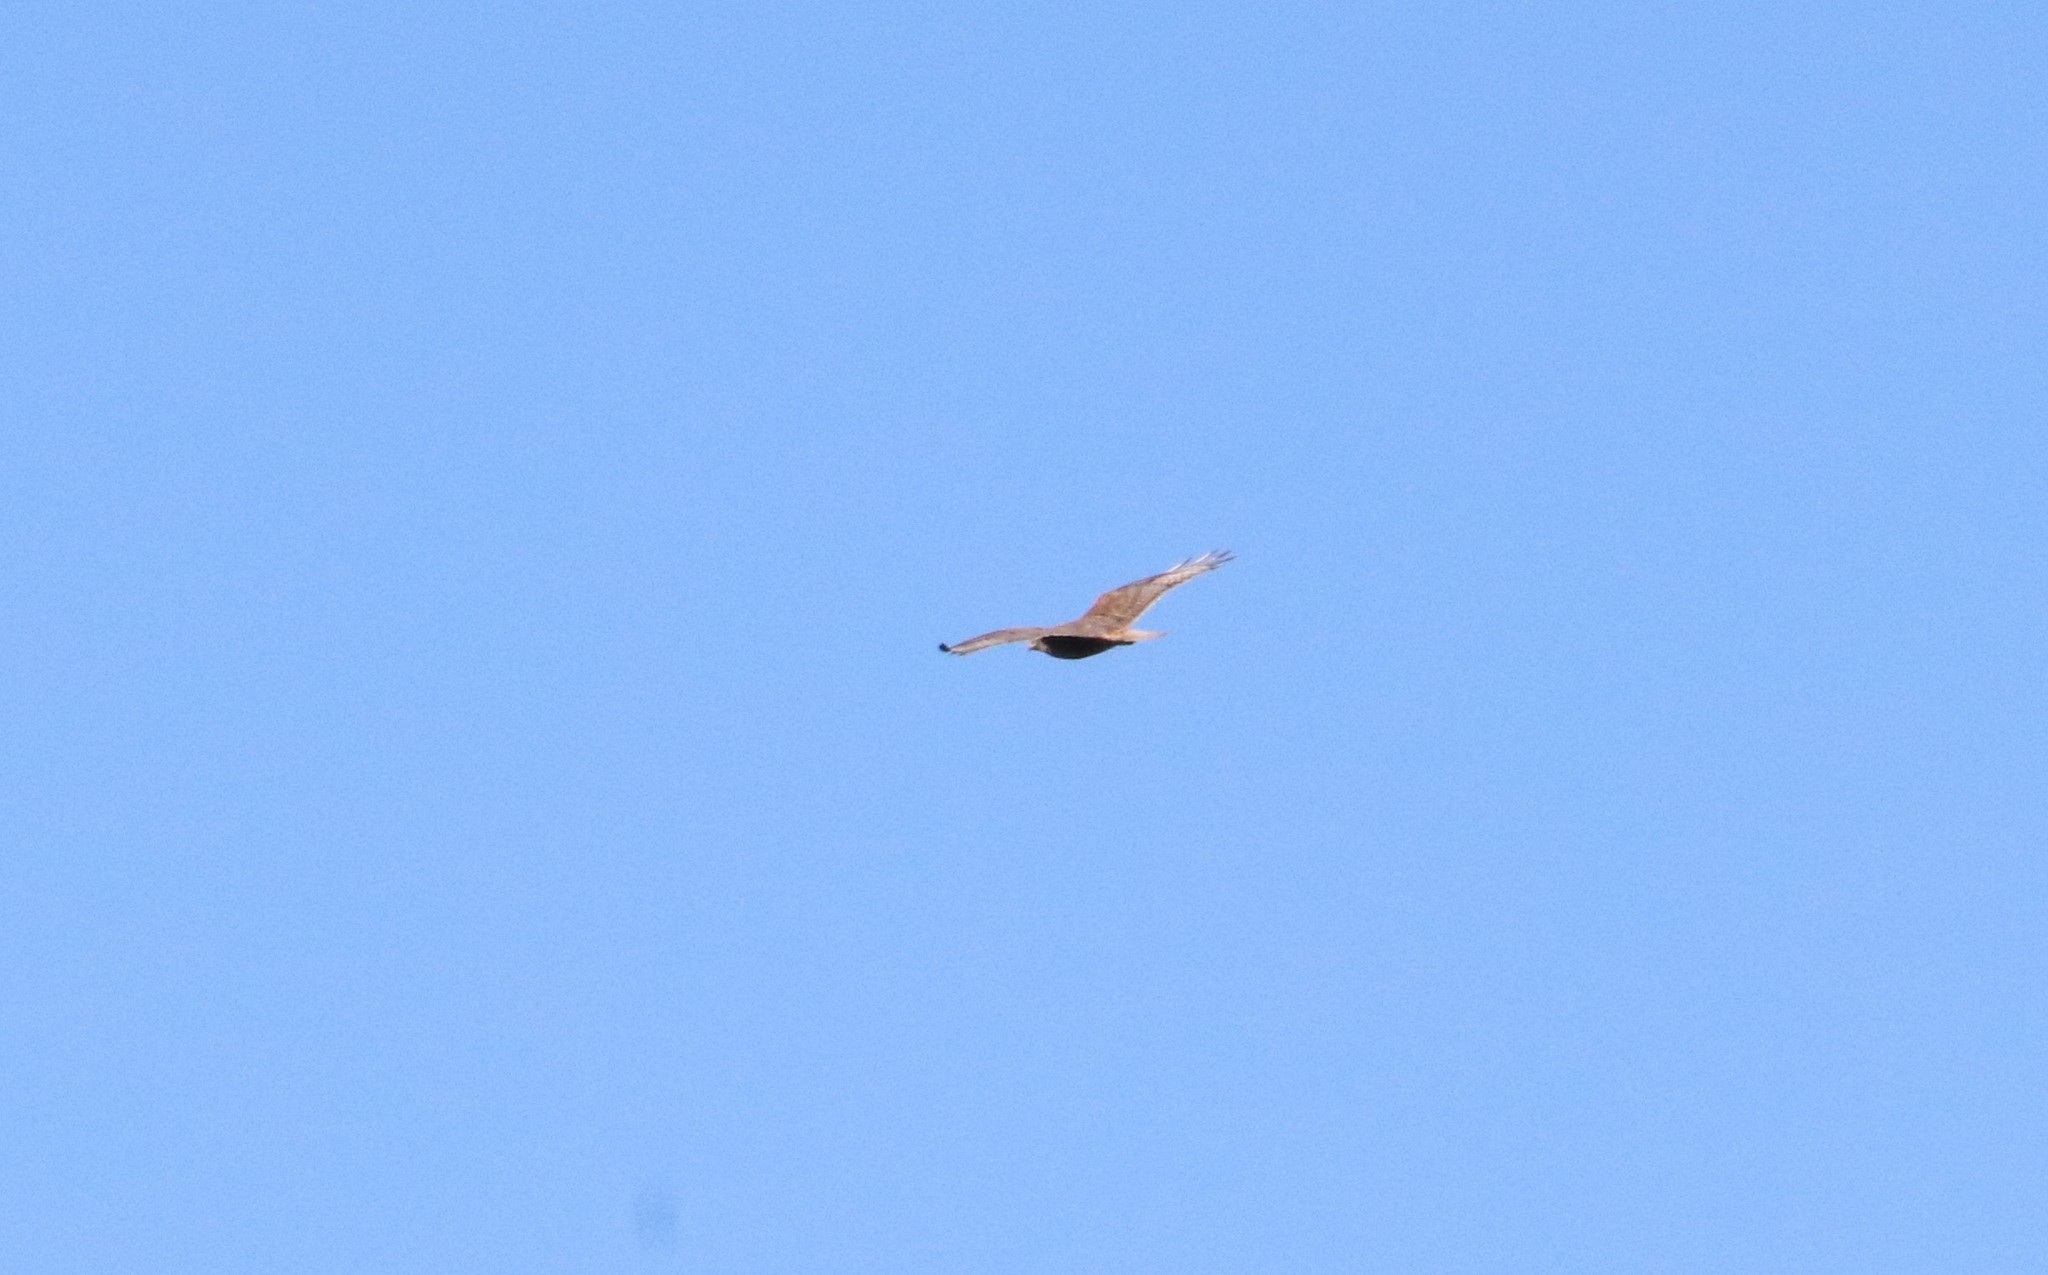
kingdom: Animalia
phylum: Chordata
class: Aves
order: Accipitriformes
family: Accipitridae
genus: Buteo
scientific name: Buteo regalis
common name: Ferruginous hawk
